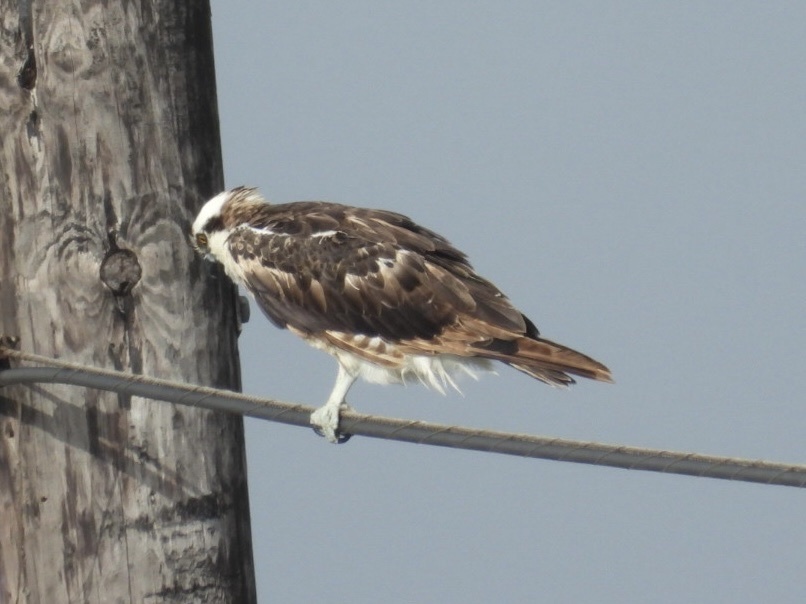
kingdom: Animalia
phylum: Chordata
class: Aves
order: Accipitriformes
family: Pandionidae
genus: Pandion
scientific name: Pandion haliaetus
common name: Osprey
